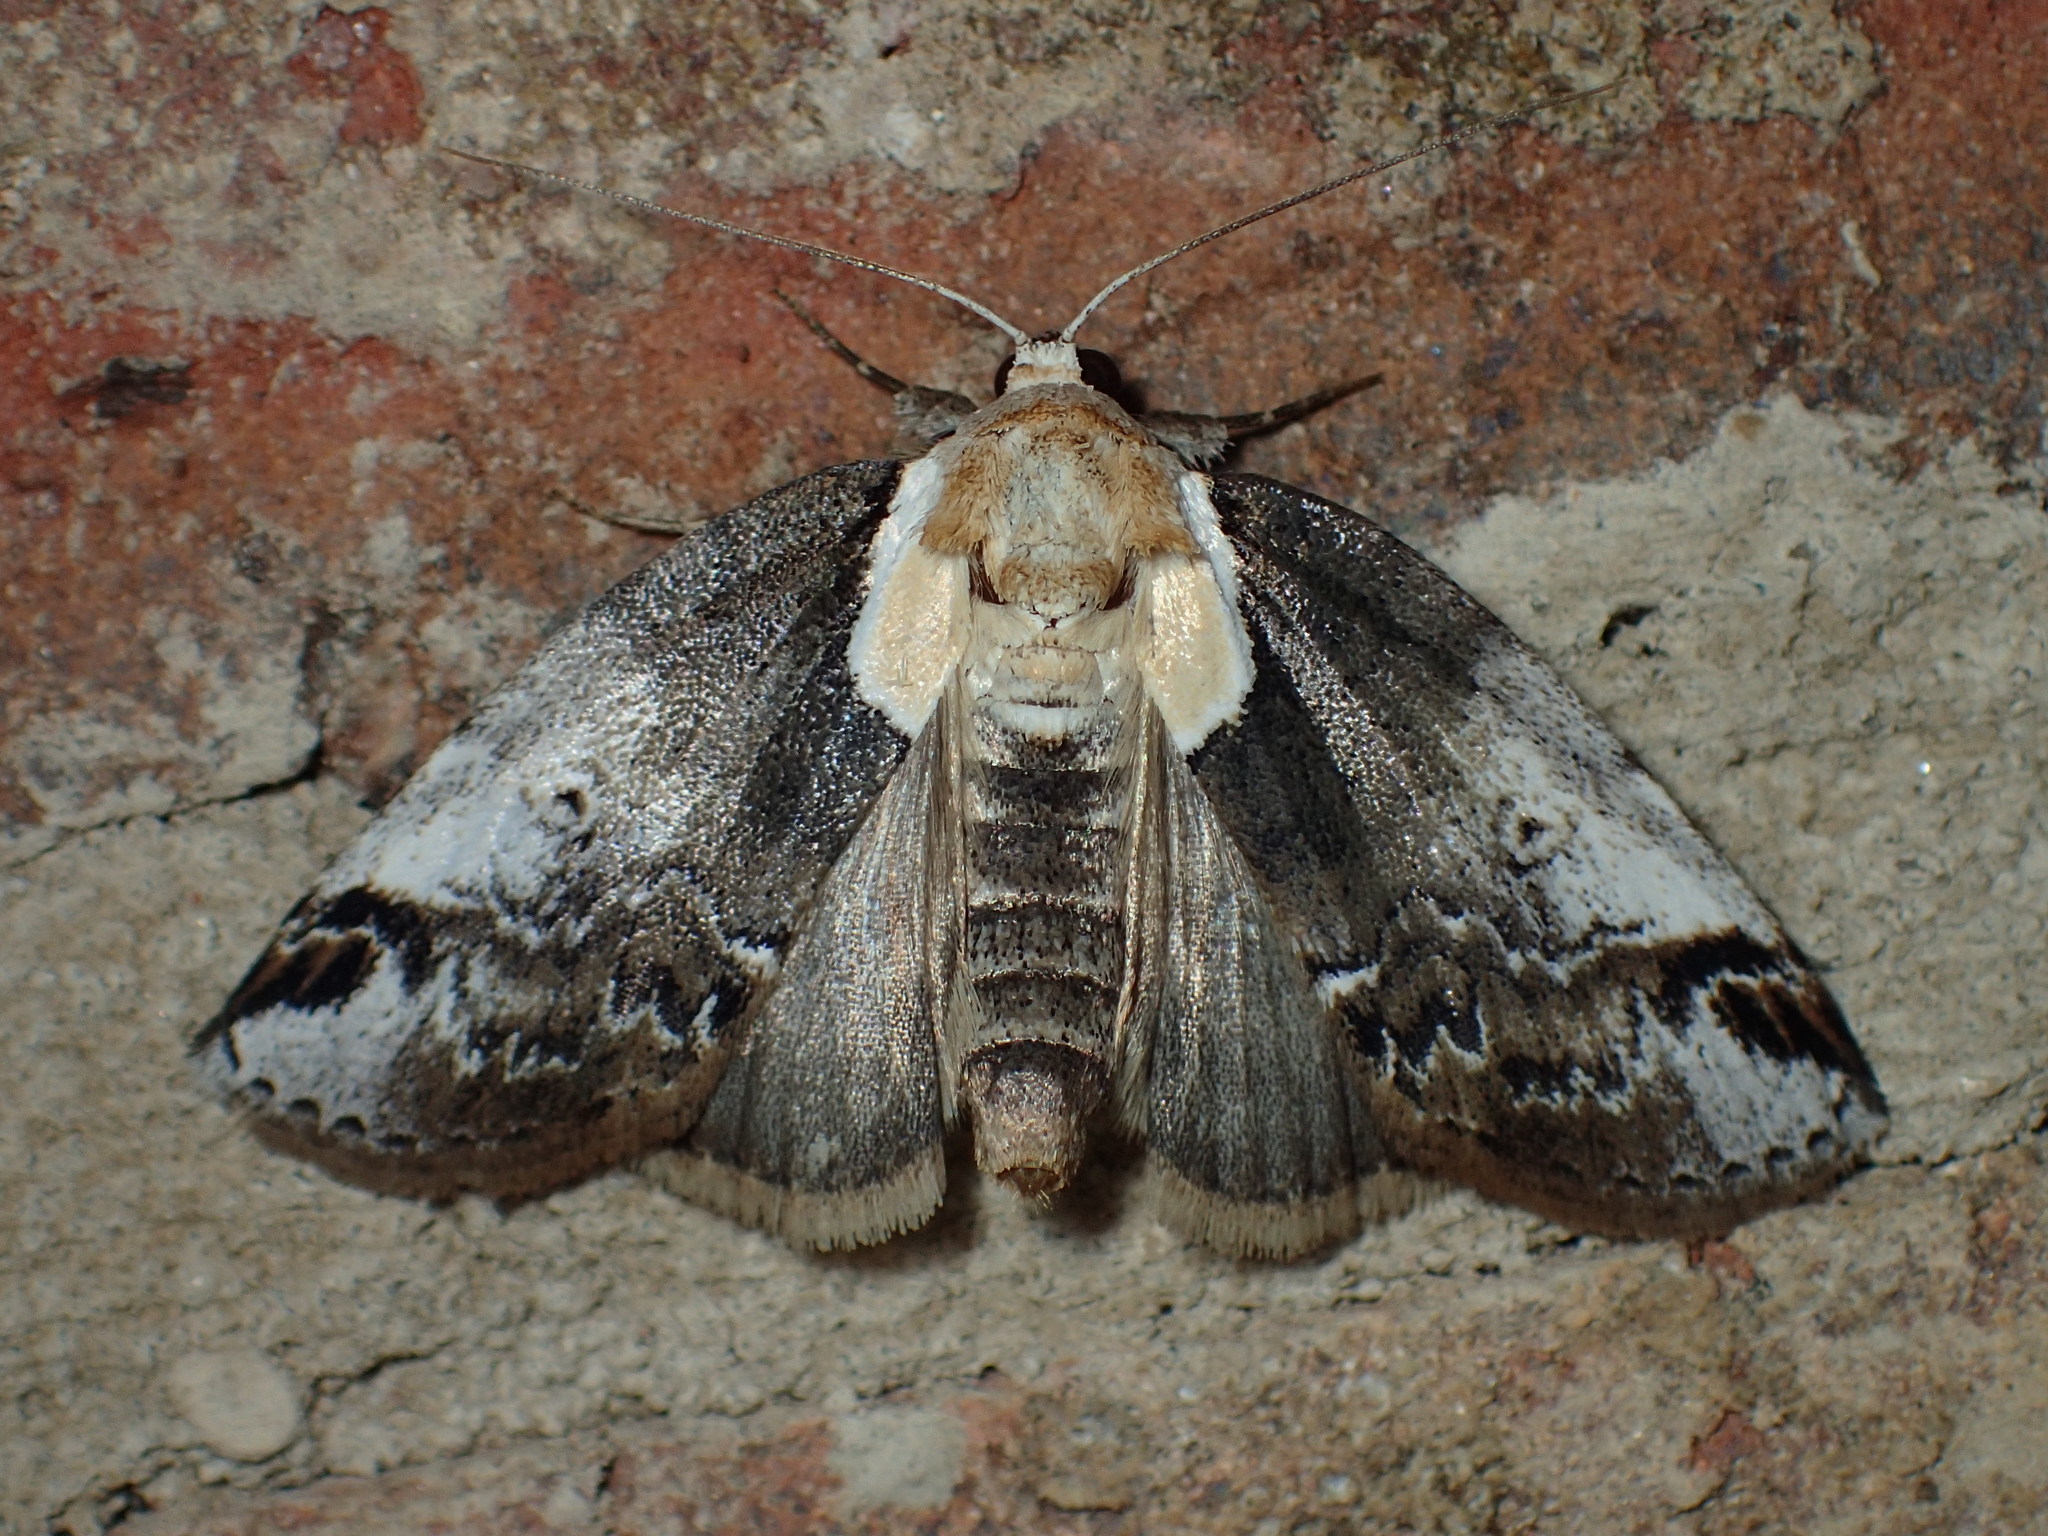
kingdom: Animalia
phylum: Arthropoda
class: Insecta
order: Lepidoptera
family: Nolidae
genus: Baileya
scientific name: Baileya ophthalmica
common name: Eyed baileya moth
